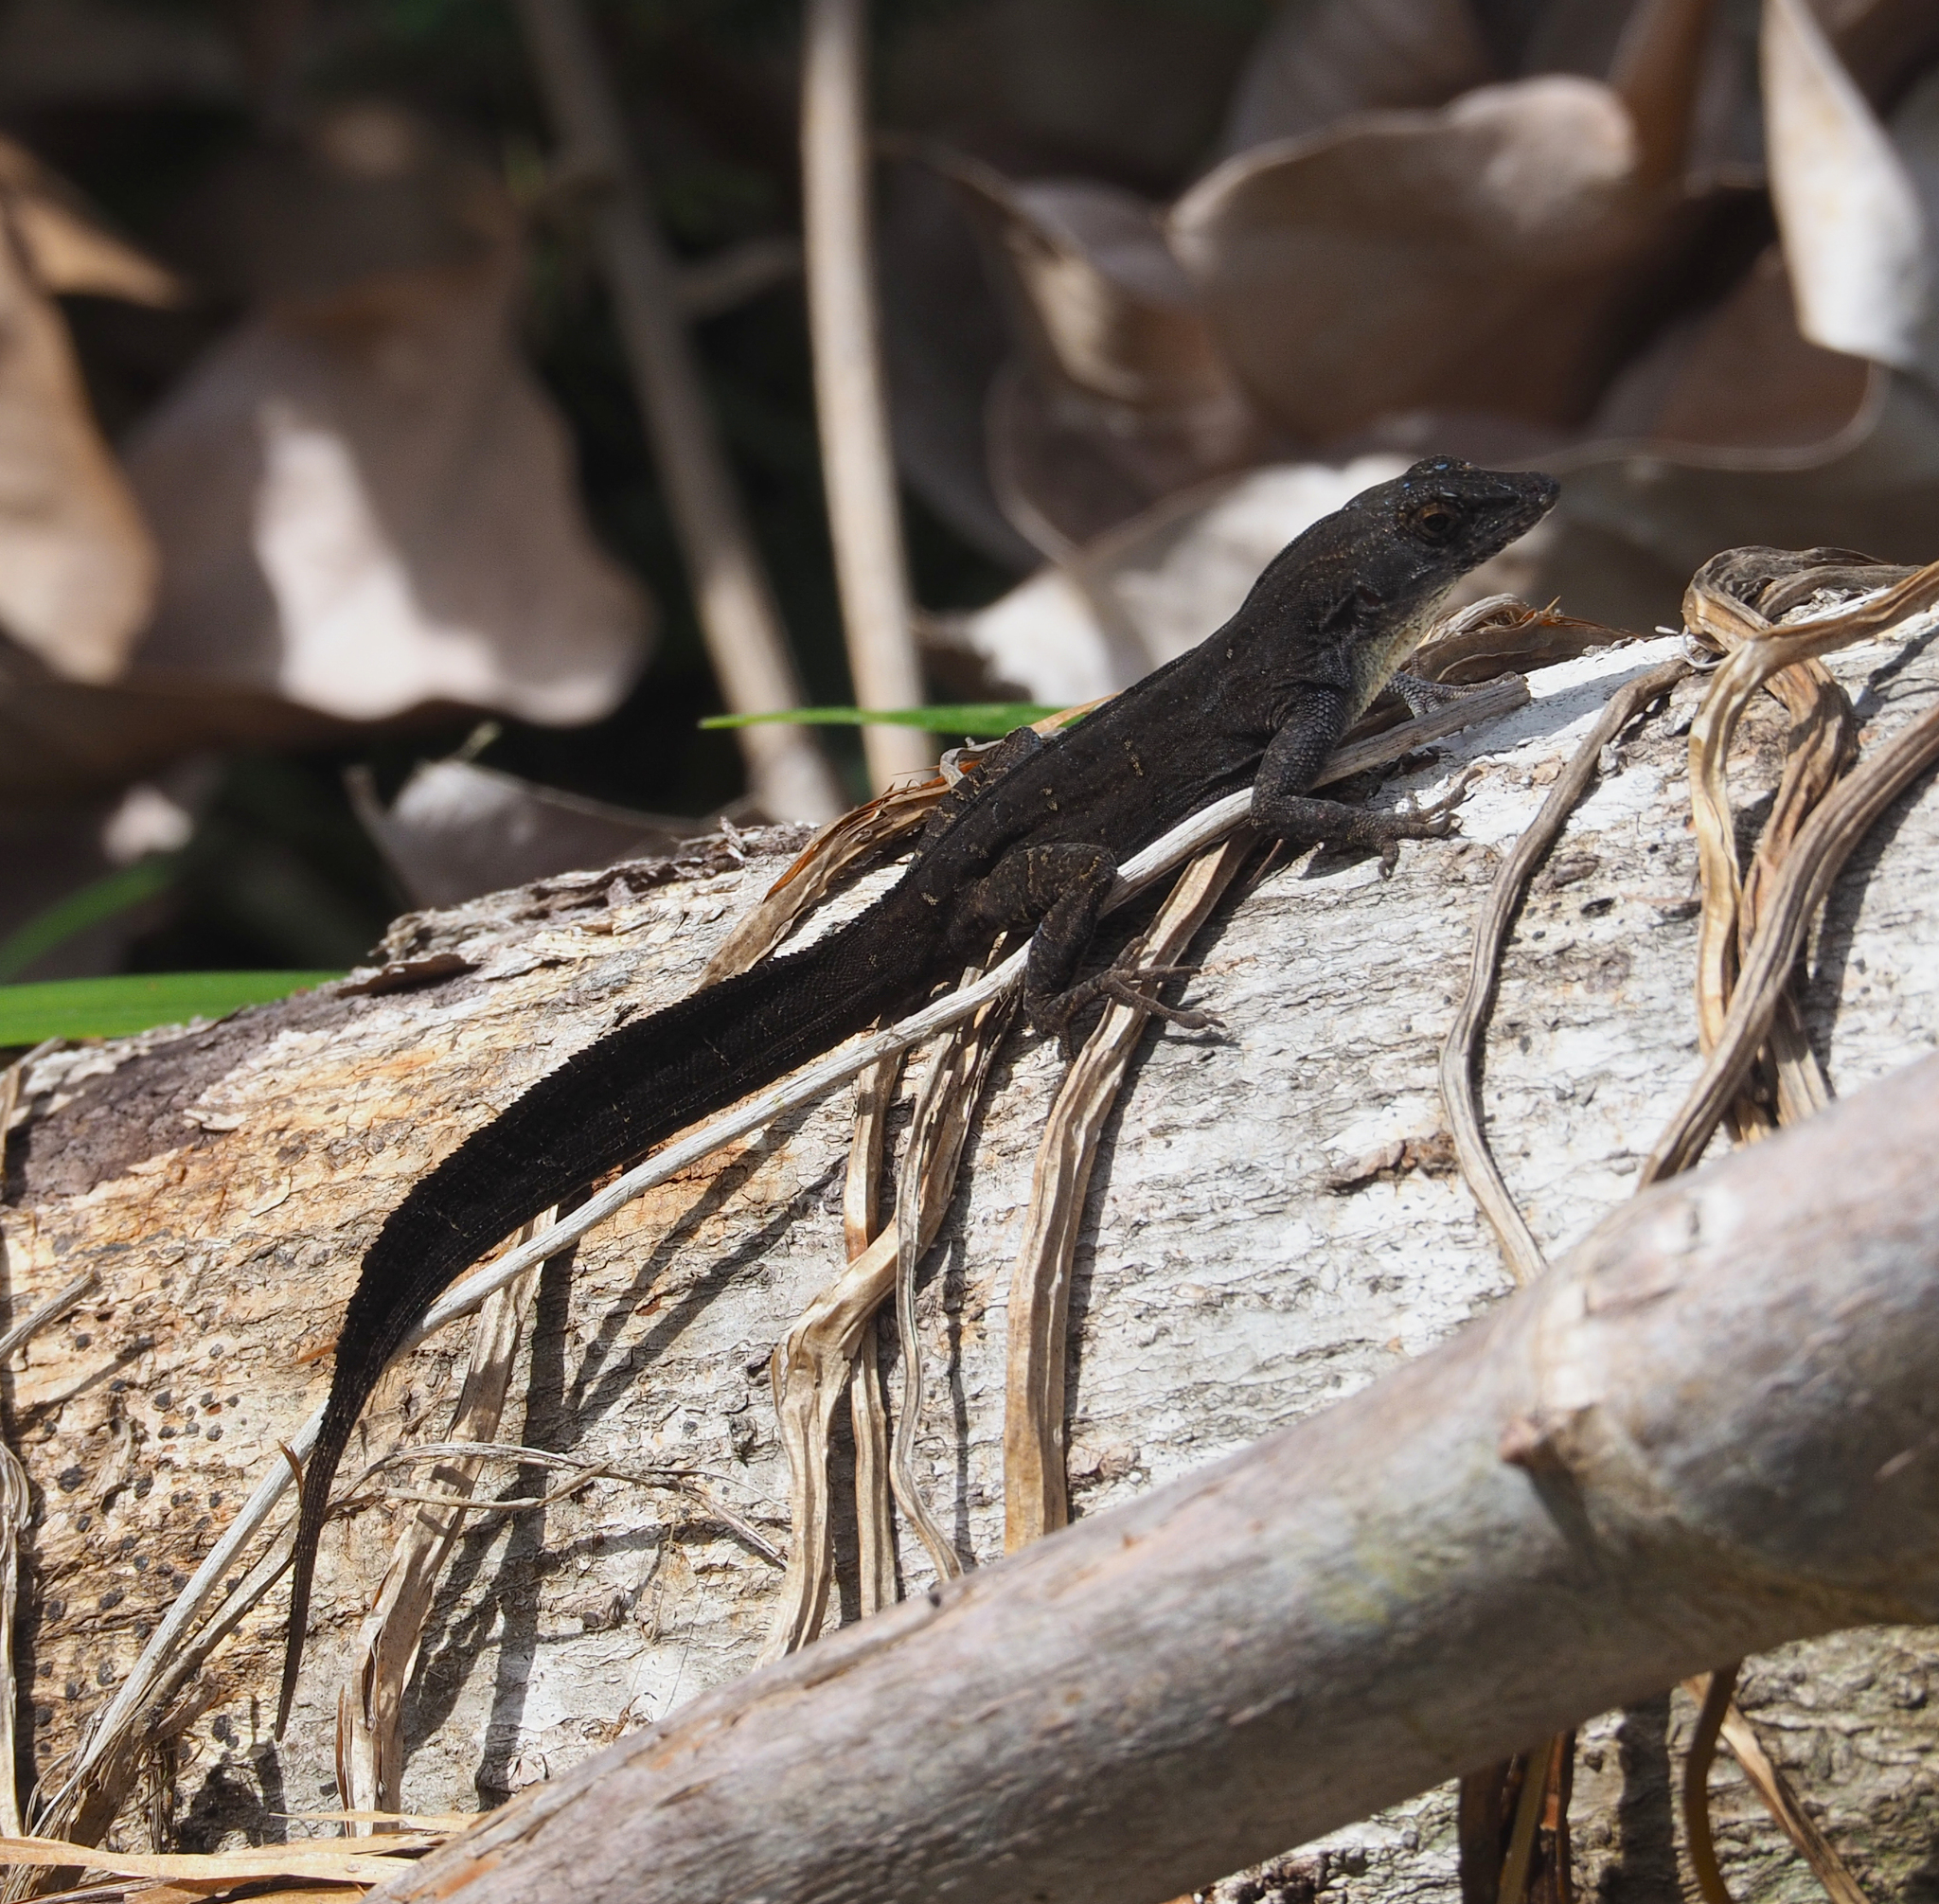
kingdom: Animalia
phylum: Chordata
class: Squamata
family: Dactyloidae
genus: Anolis
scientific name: Anolis homolechis
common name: Habana anole
